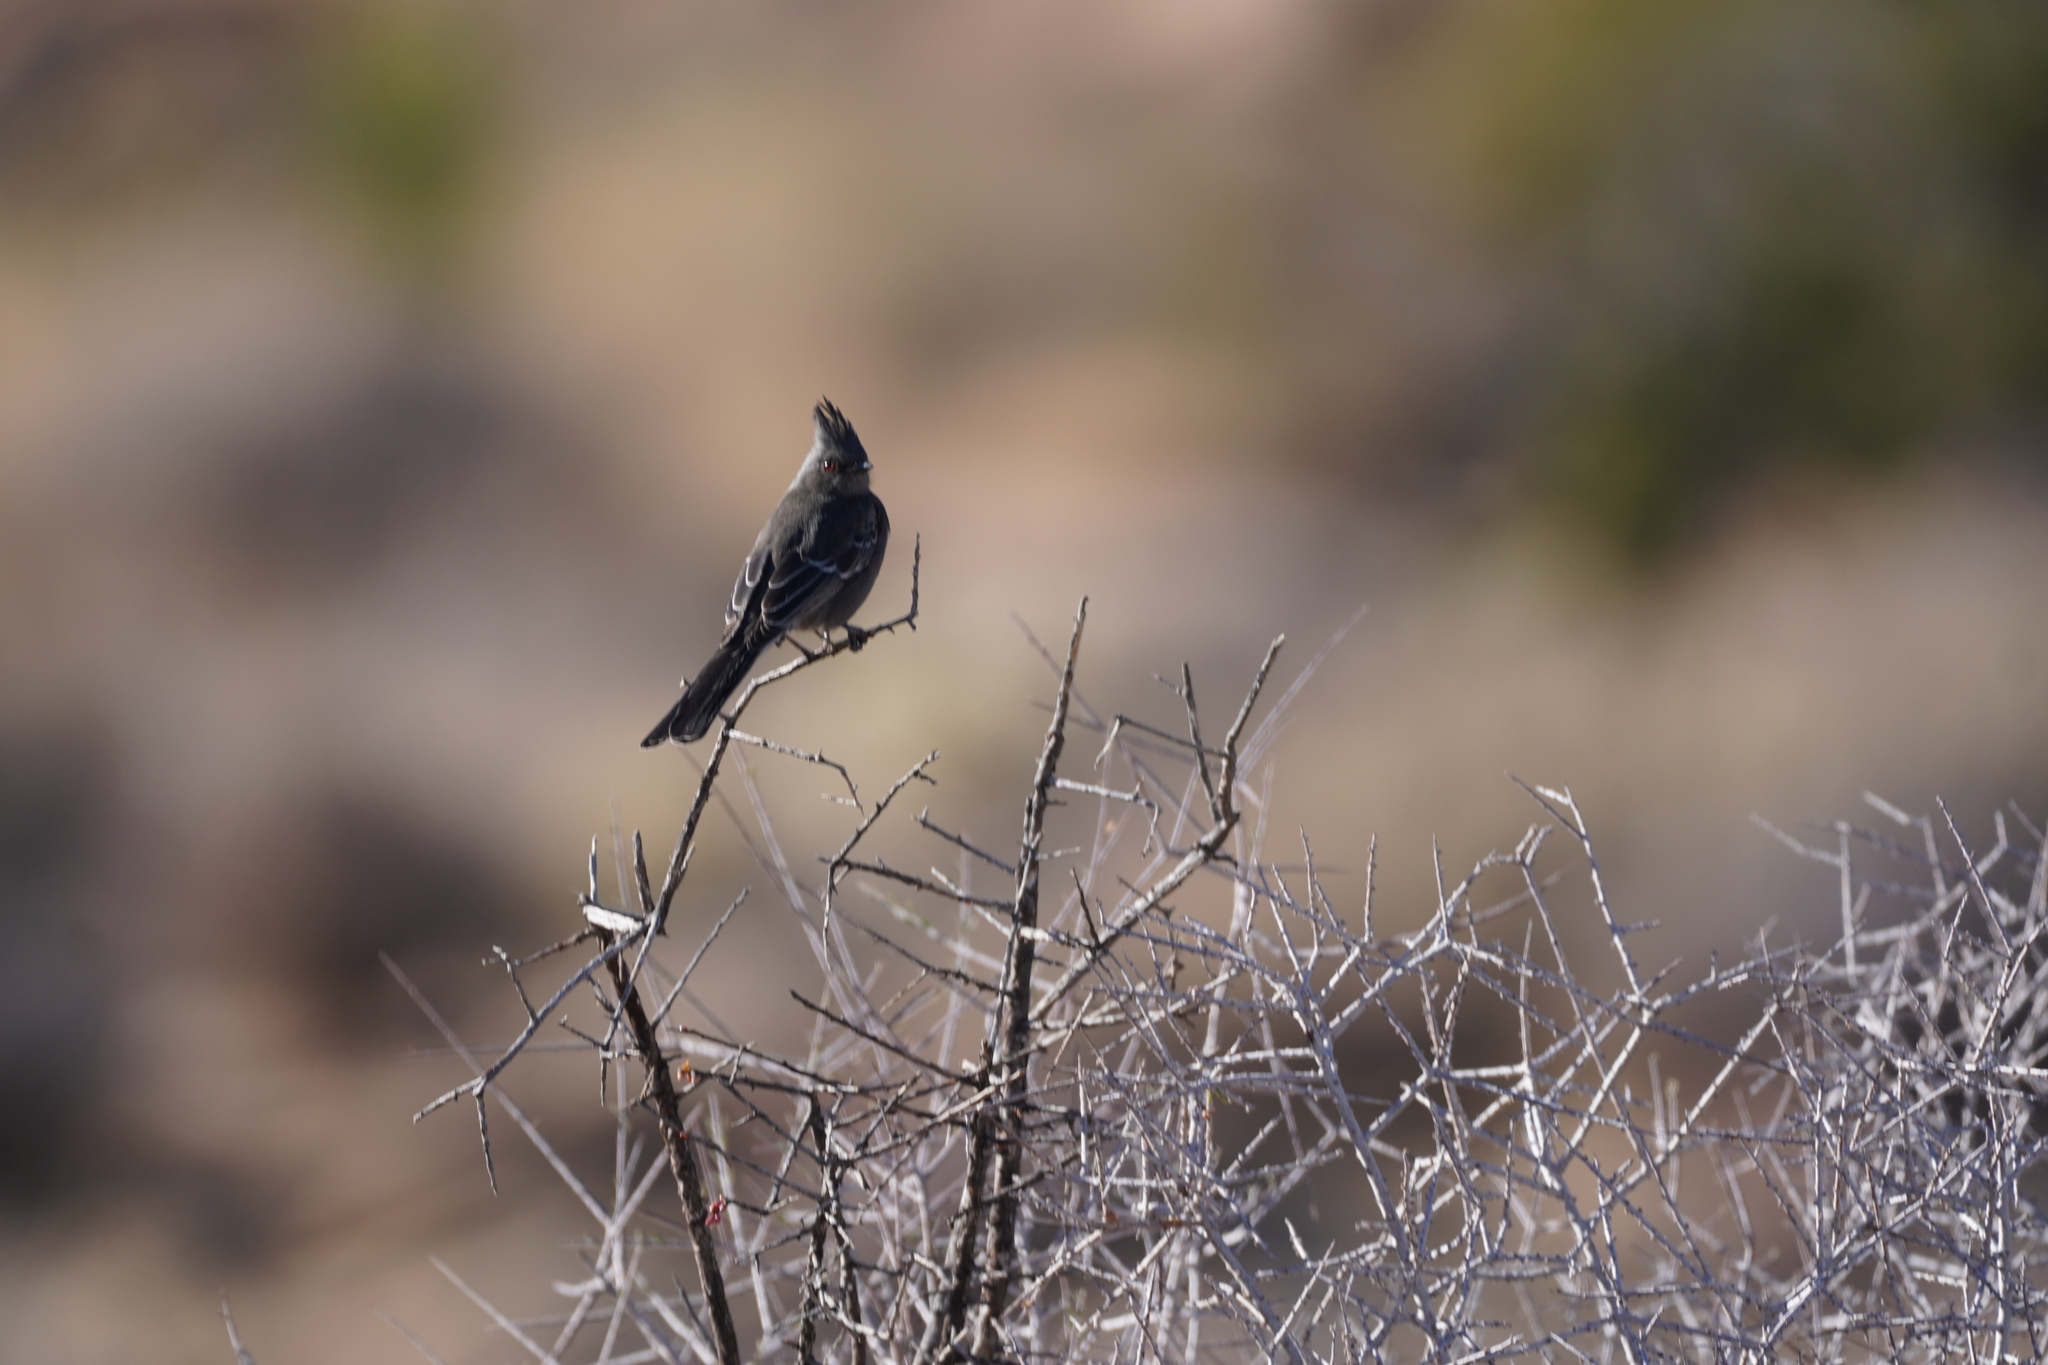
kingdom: Animalia
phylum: Chordata
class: Aves
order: Passeriformes
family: Ptilogonatidae
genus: Phainopepla
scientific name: Phainopepla nitens
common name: Phainopepla
